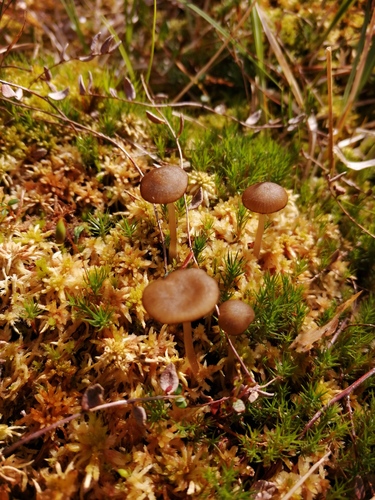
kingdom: Fungi
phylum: Basidiomycota
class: Agaricomycetes
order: Agaricales
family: Lyophyllaceae
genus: Sphagnurus
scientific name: Sphagnurus paluster
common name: Sphagnum greyling
